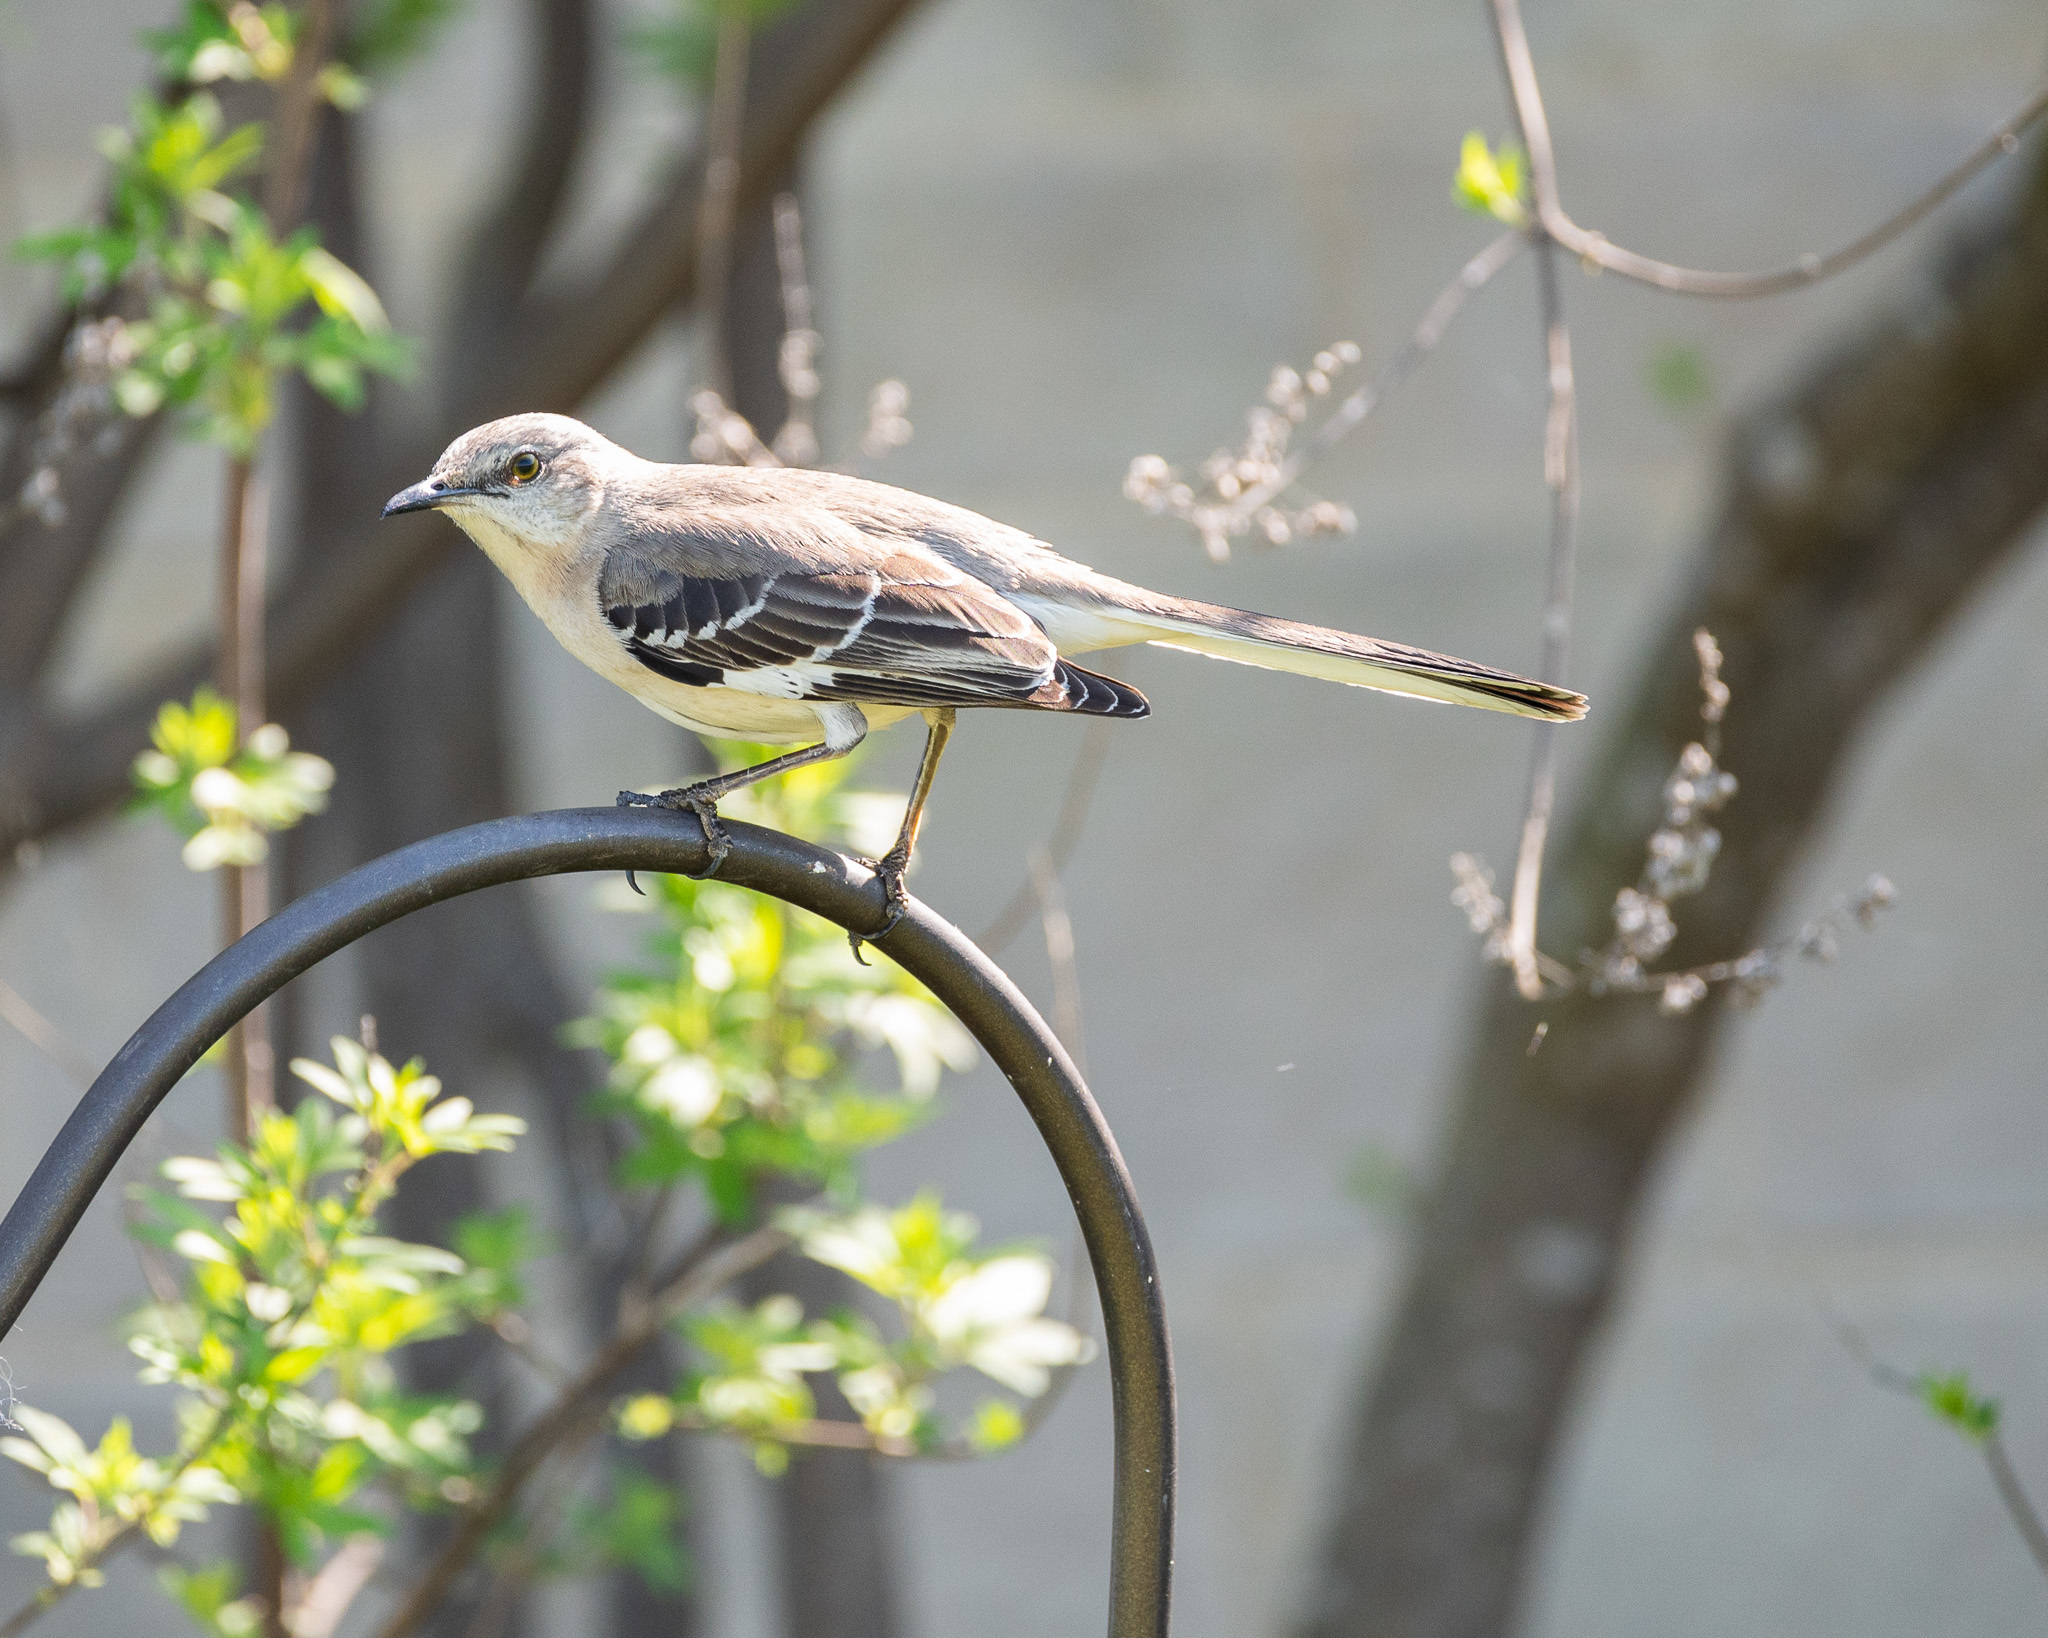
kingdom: Animalia
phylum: Chordata
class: Aves
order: Passeriformes
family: Mimidae
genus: Mimus
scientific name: Mimus polyglottos
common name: Northern mockingbird
